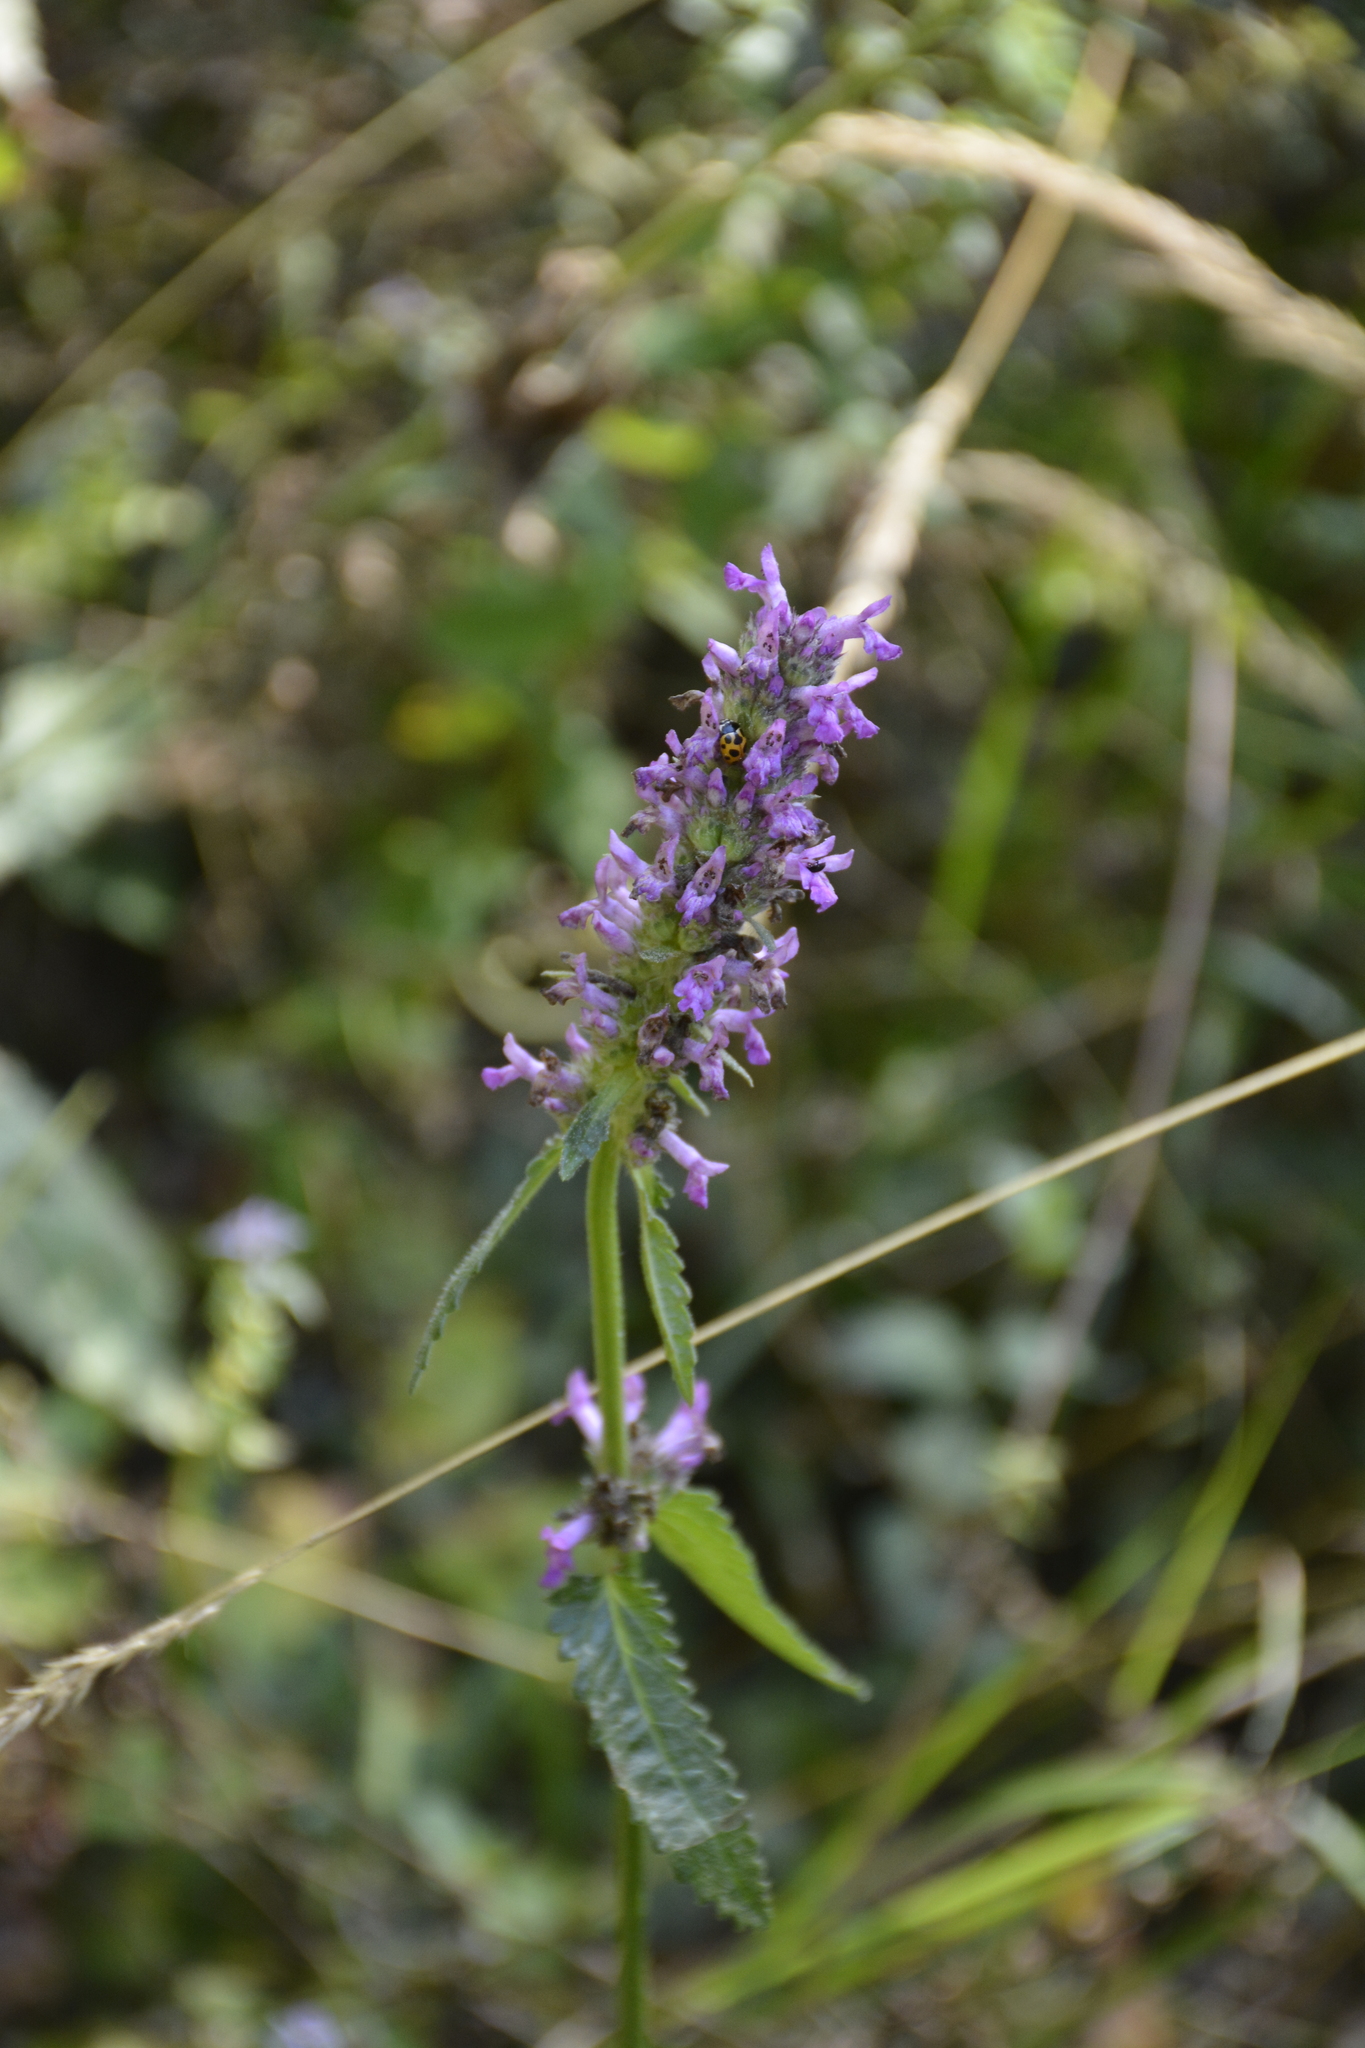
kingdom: Plantae
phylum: Tracheophyta
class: Magnoliopsida
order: Lamiales
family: Lamiaceae
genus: Betonica
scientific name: Betonica officinalis
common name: Bishop's-wort
